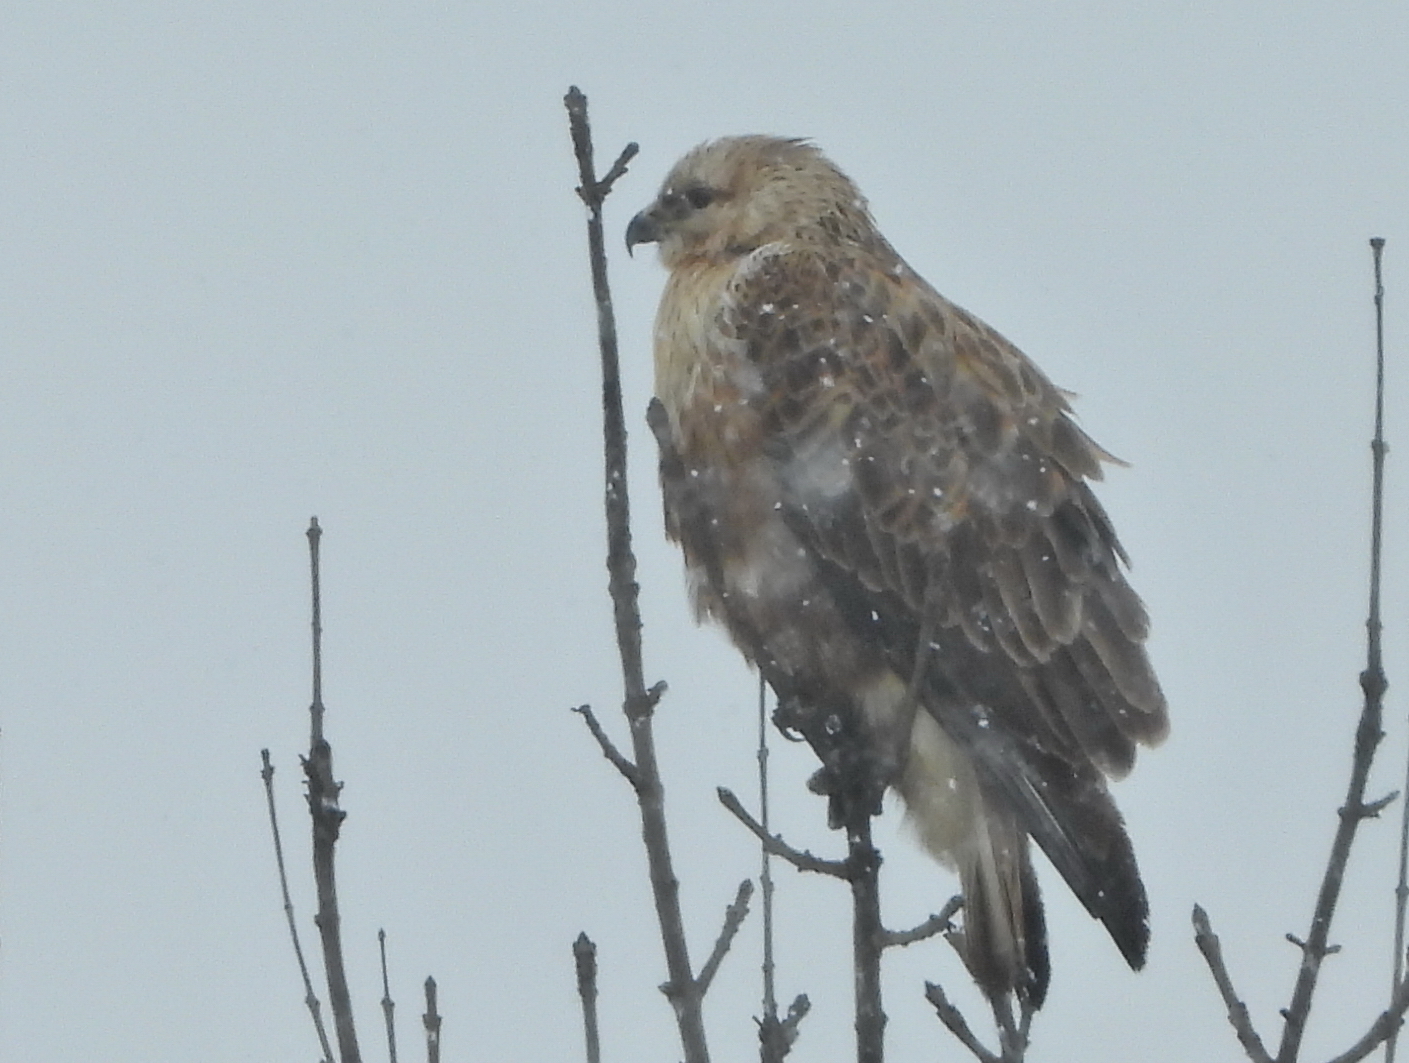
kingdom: Animalia
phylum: Chordata
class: Aves
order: Accipitriformes
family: Accipitridae
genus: Buteo
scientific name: Buteo rufinus
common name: Long-legged buzzard
